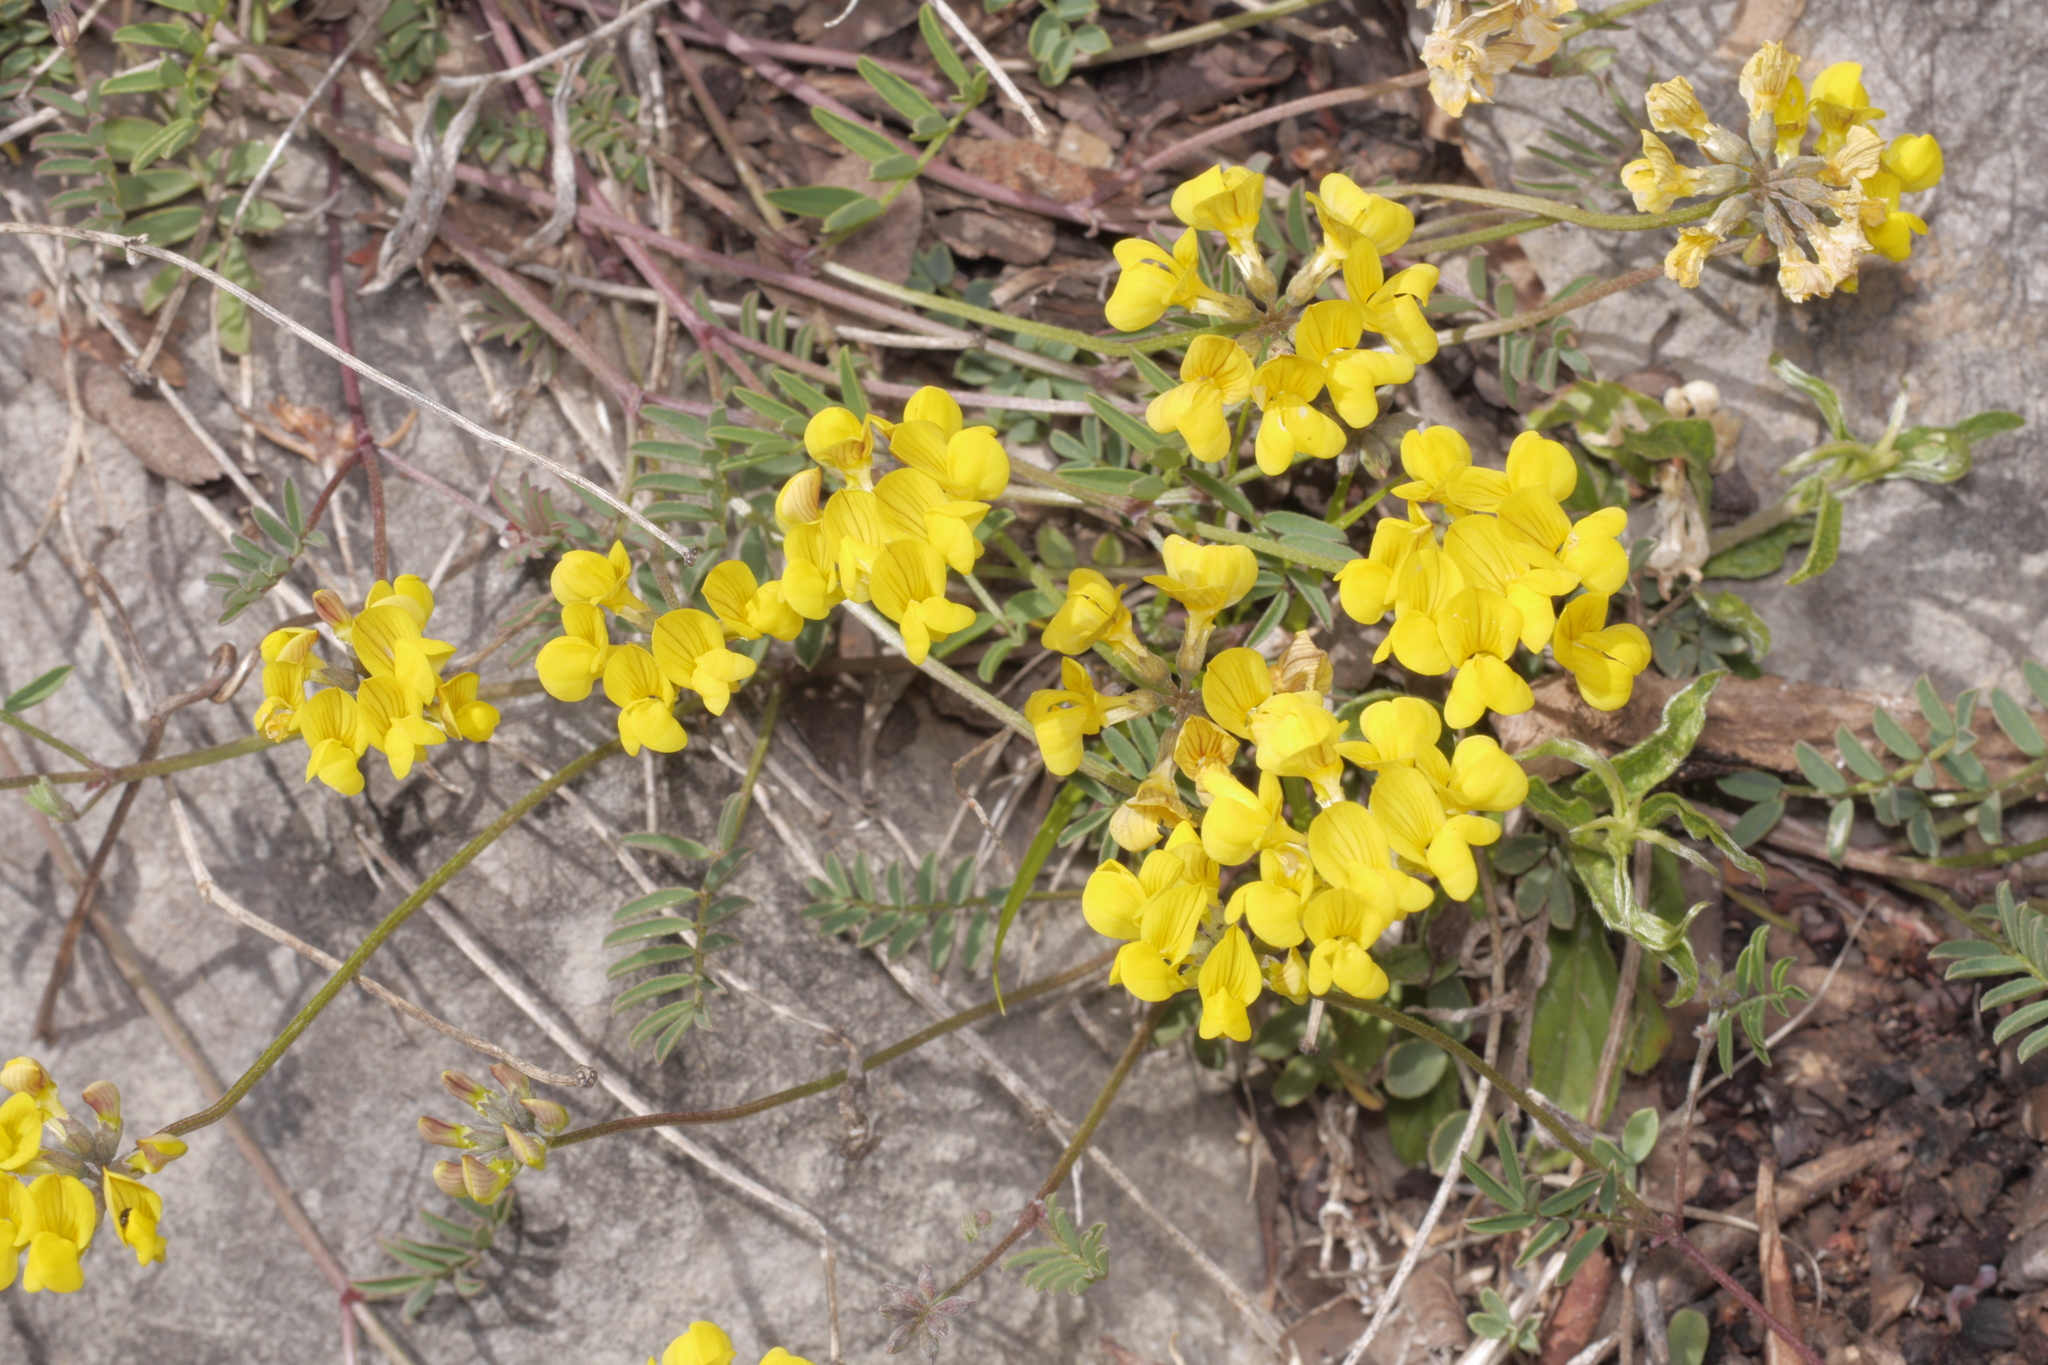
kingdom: Plantae
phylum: Tracheophyta
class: Magnoliopsida
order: Fabales
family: Fabaceae
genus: Hippocrepis
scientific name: Hippocrepis comosa
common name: Horseshoe vetch
